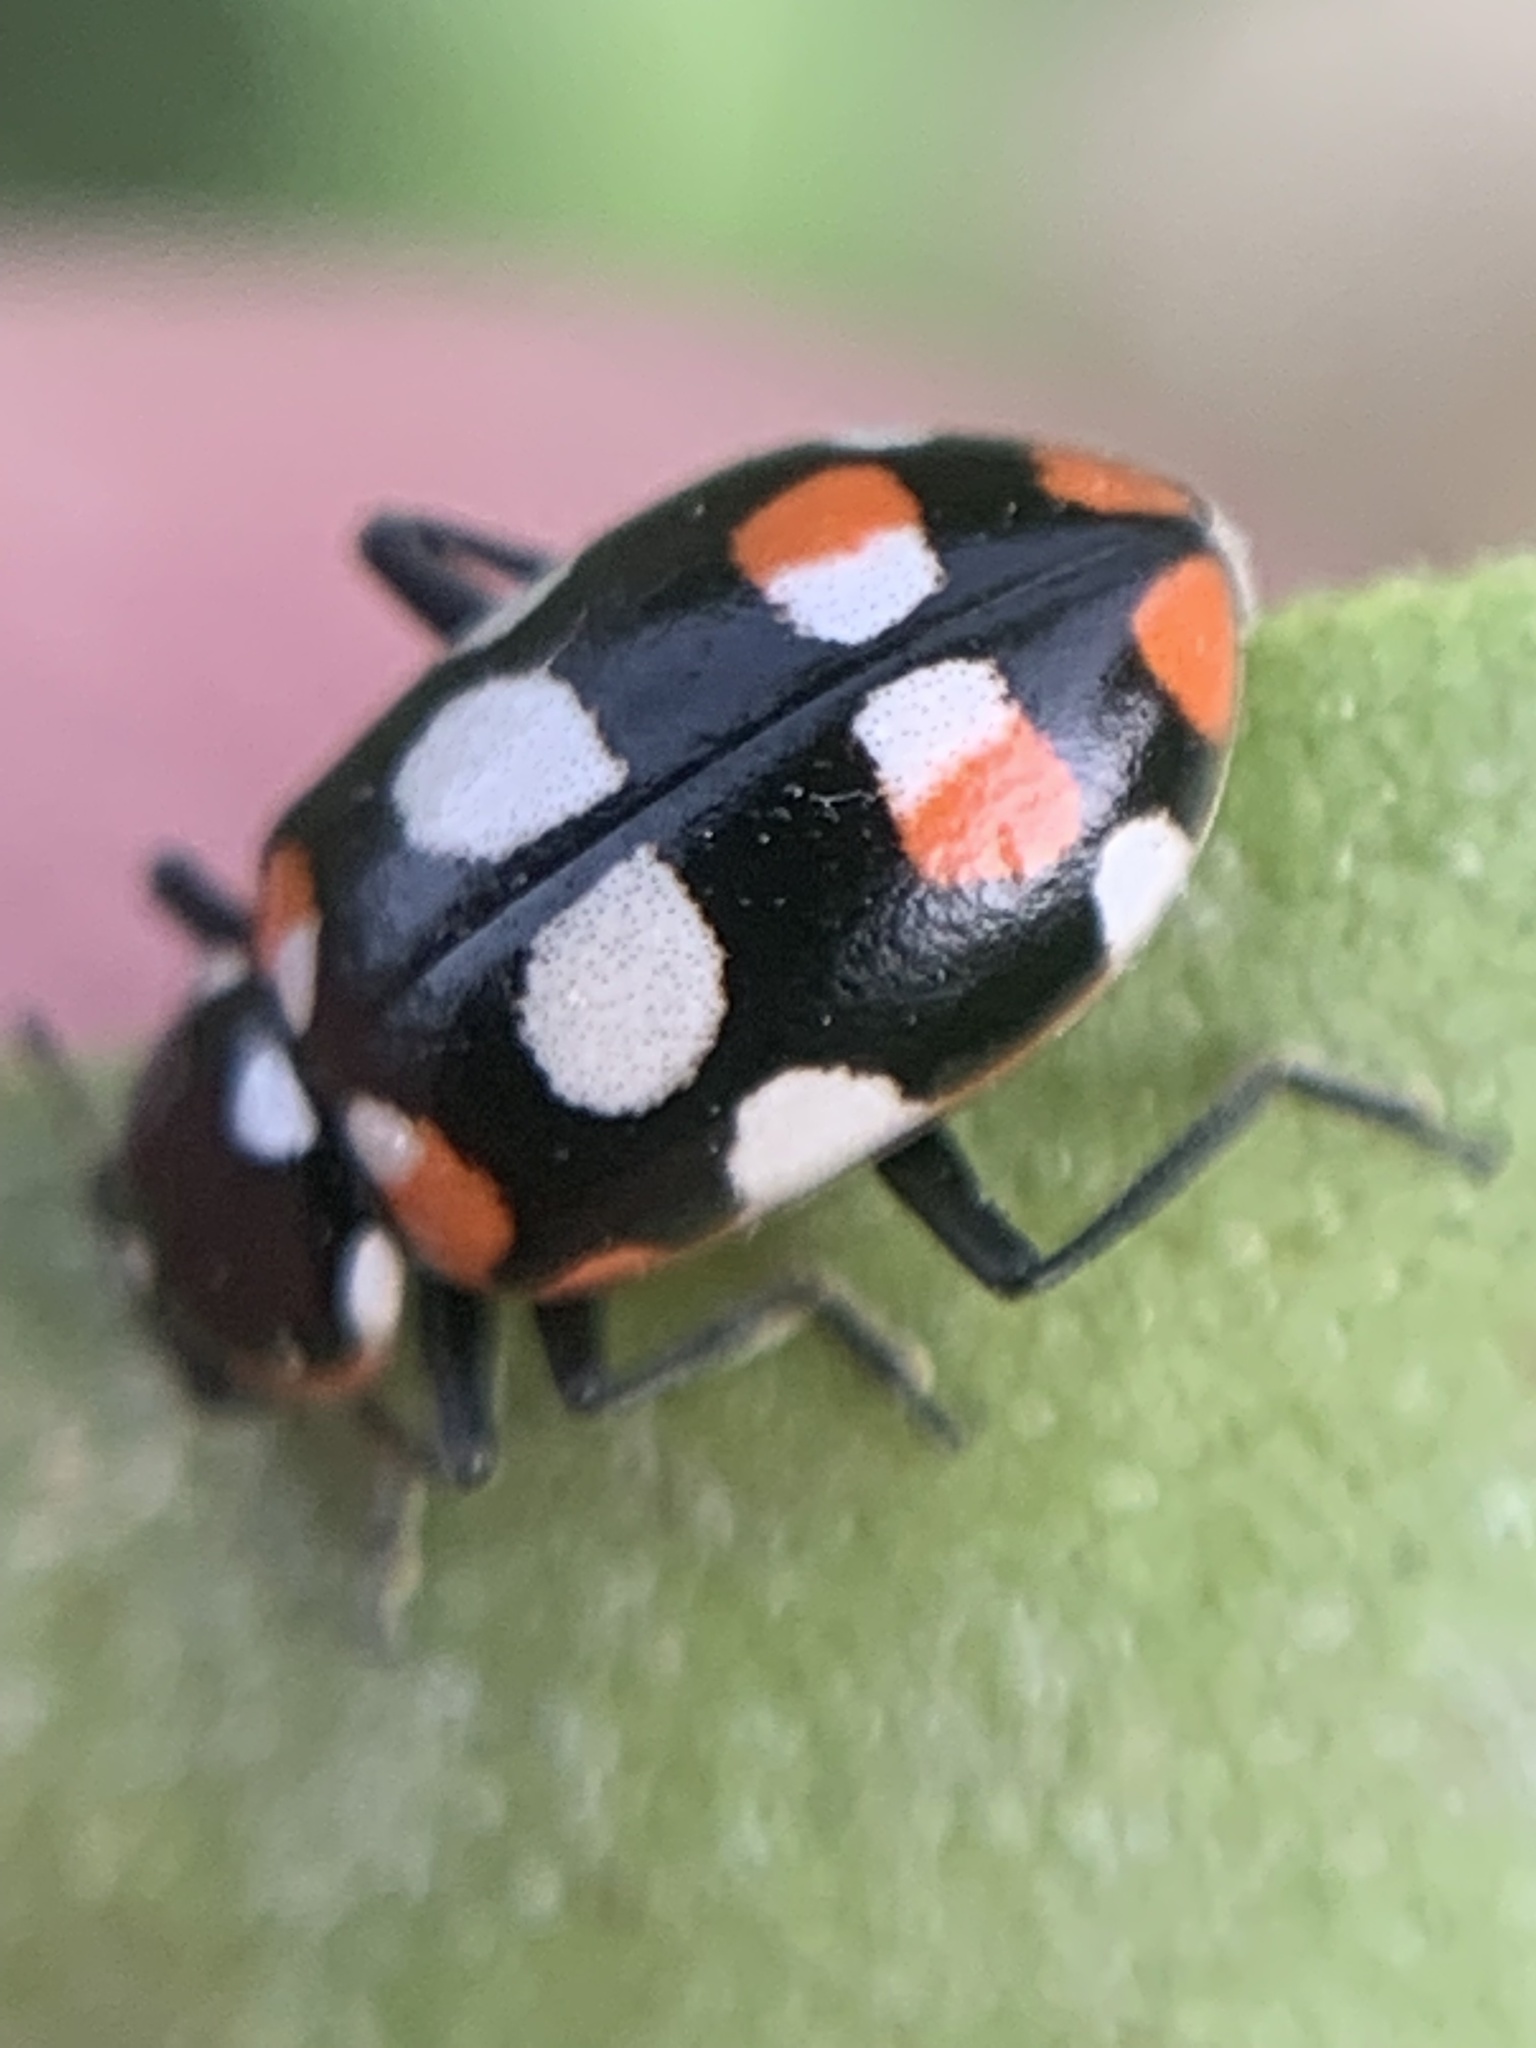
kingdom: Animalia
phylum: Arthropoda
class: Insecta
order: Coleoptera
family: Coccinellidae
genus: Eriopis
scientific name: Eriopis connexa
